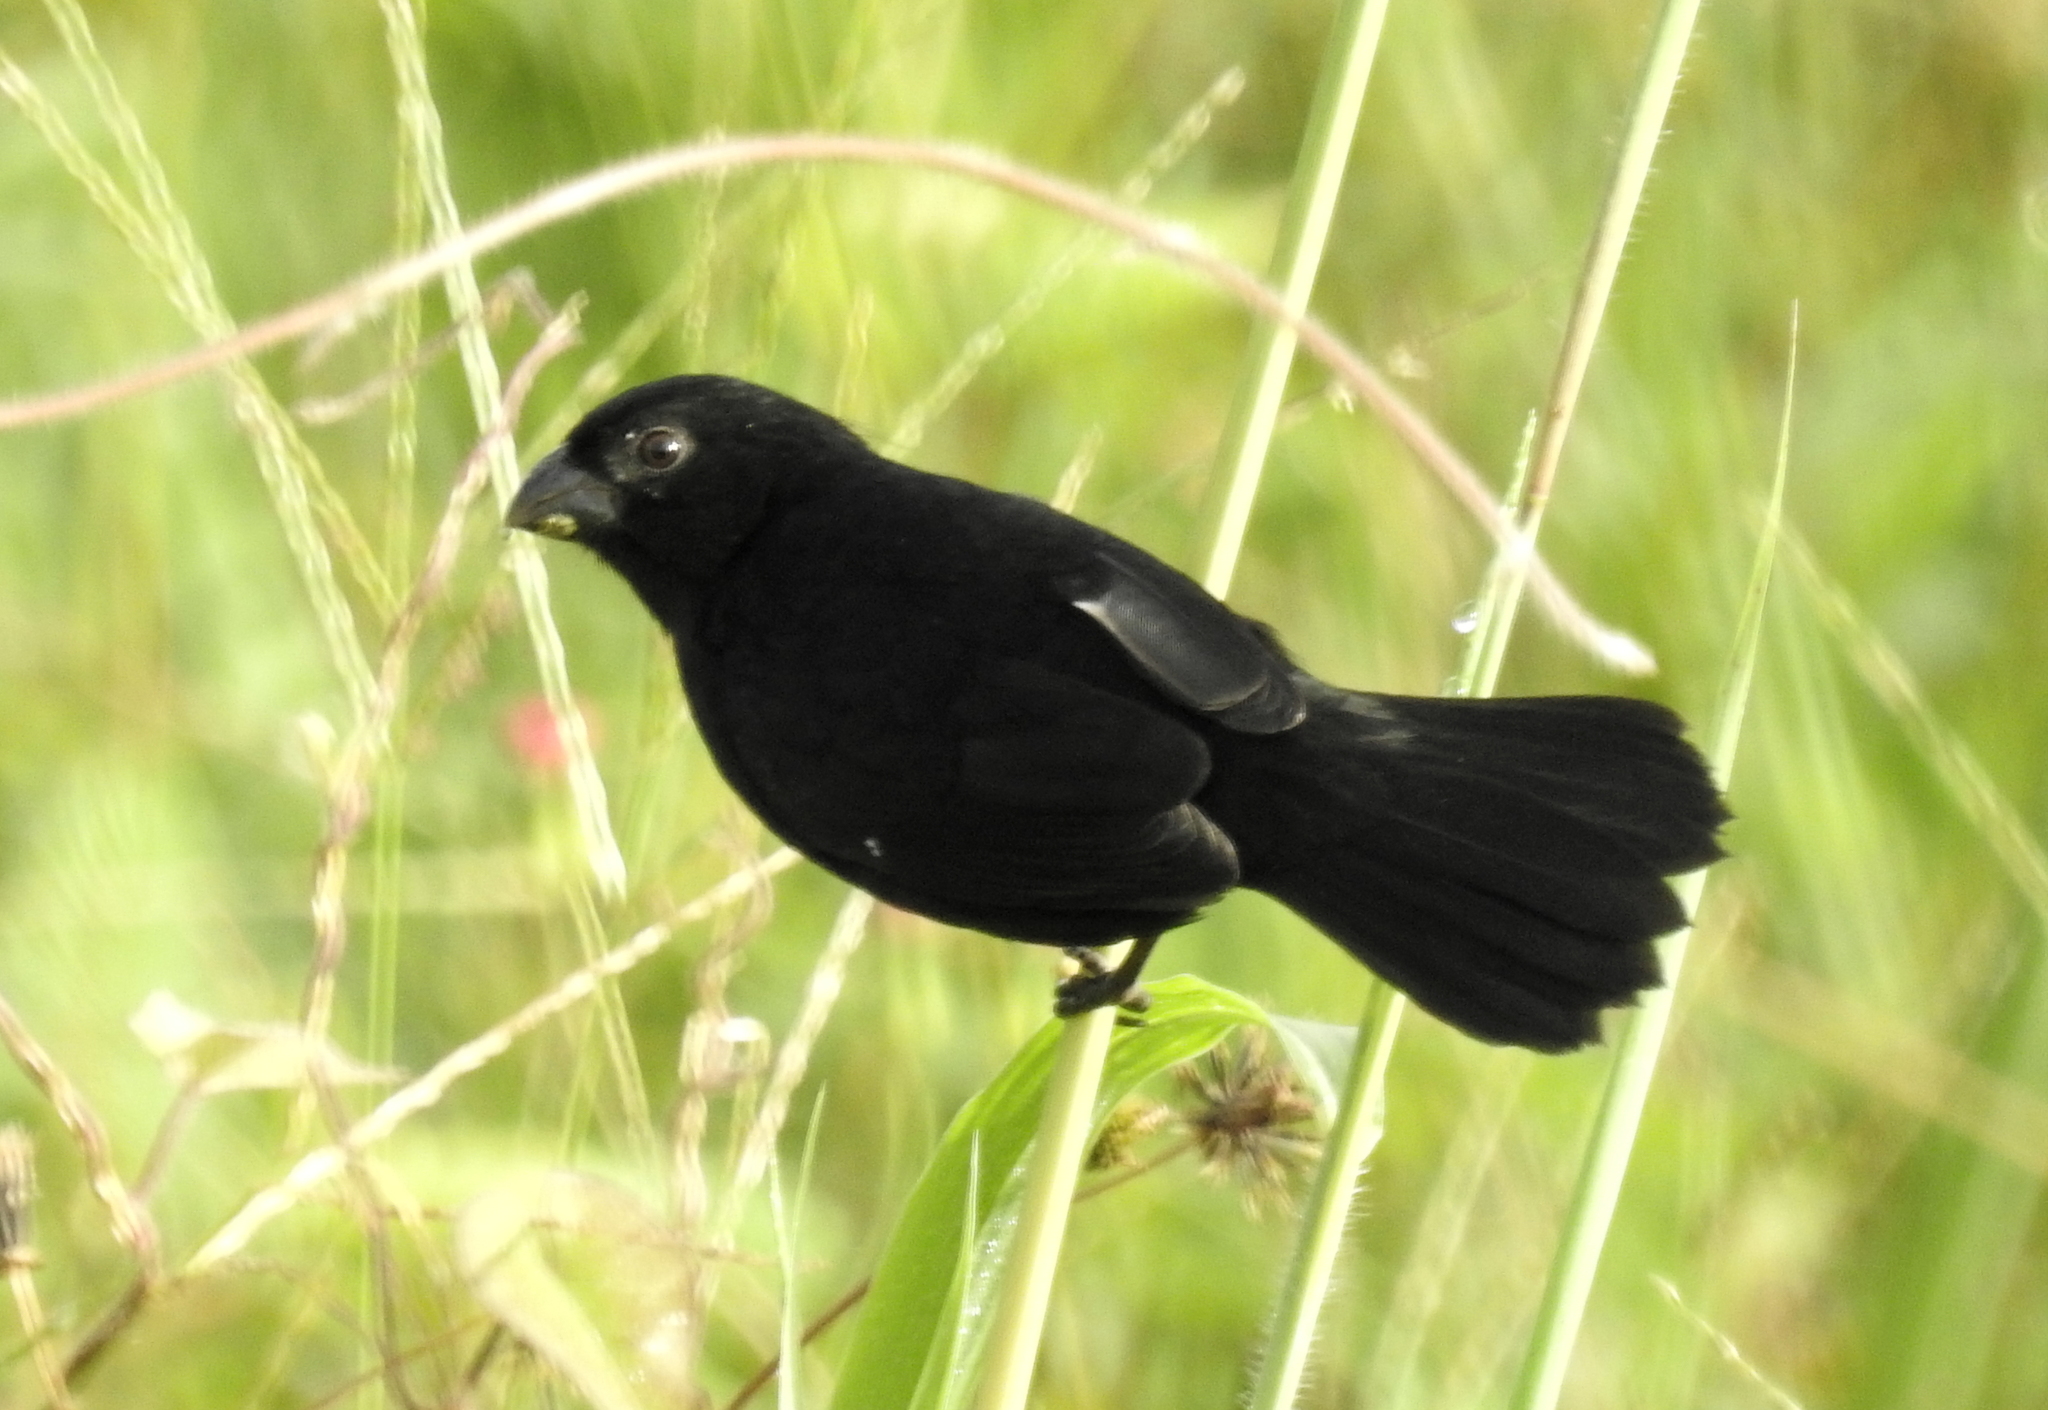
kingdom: Animalia
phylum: Chordata
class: Aves
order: Passeriformes
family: Thraupidae
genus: Sporophila
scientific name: Sporophila corvina
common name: Variable seedeater
